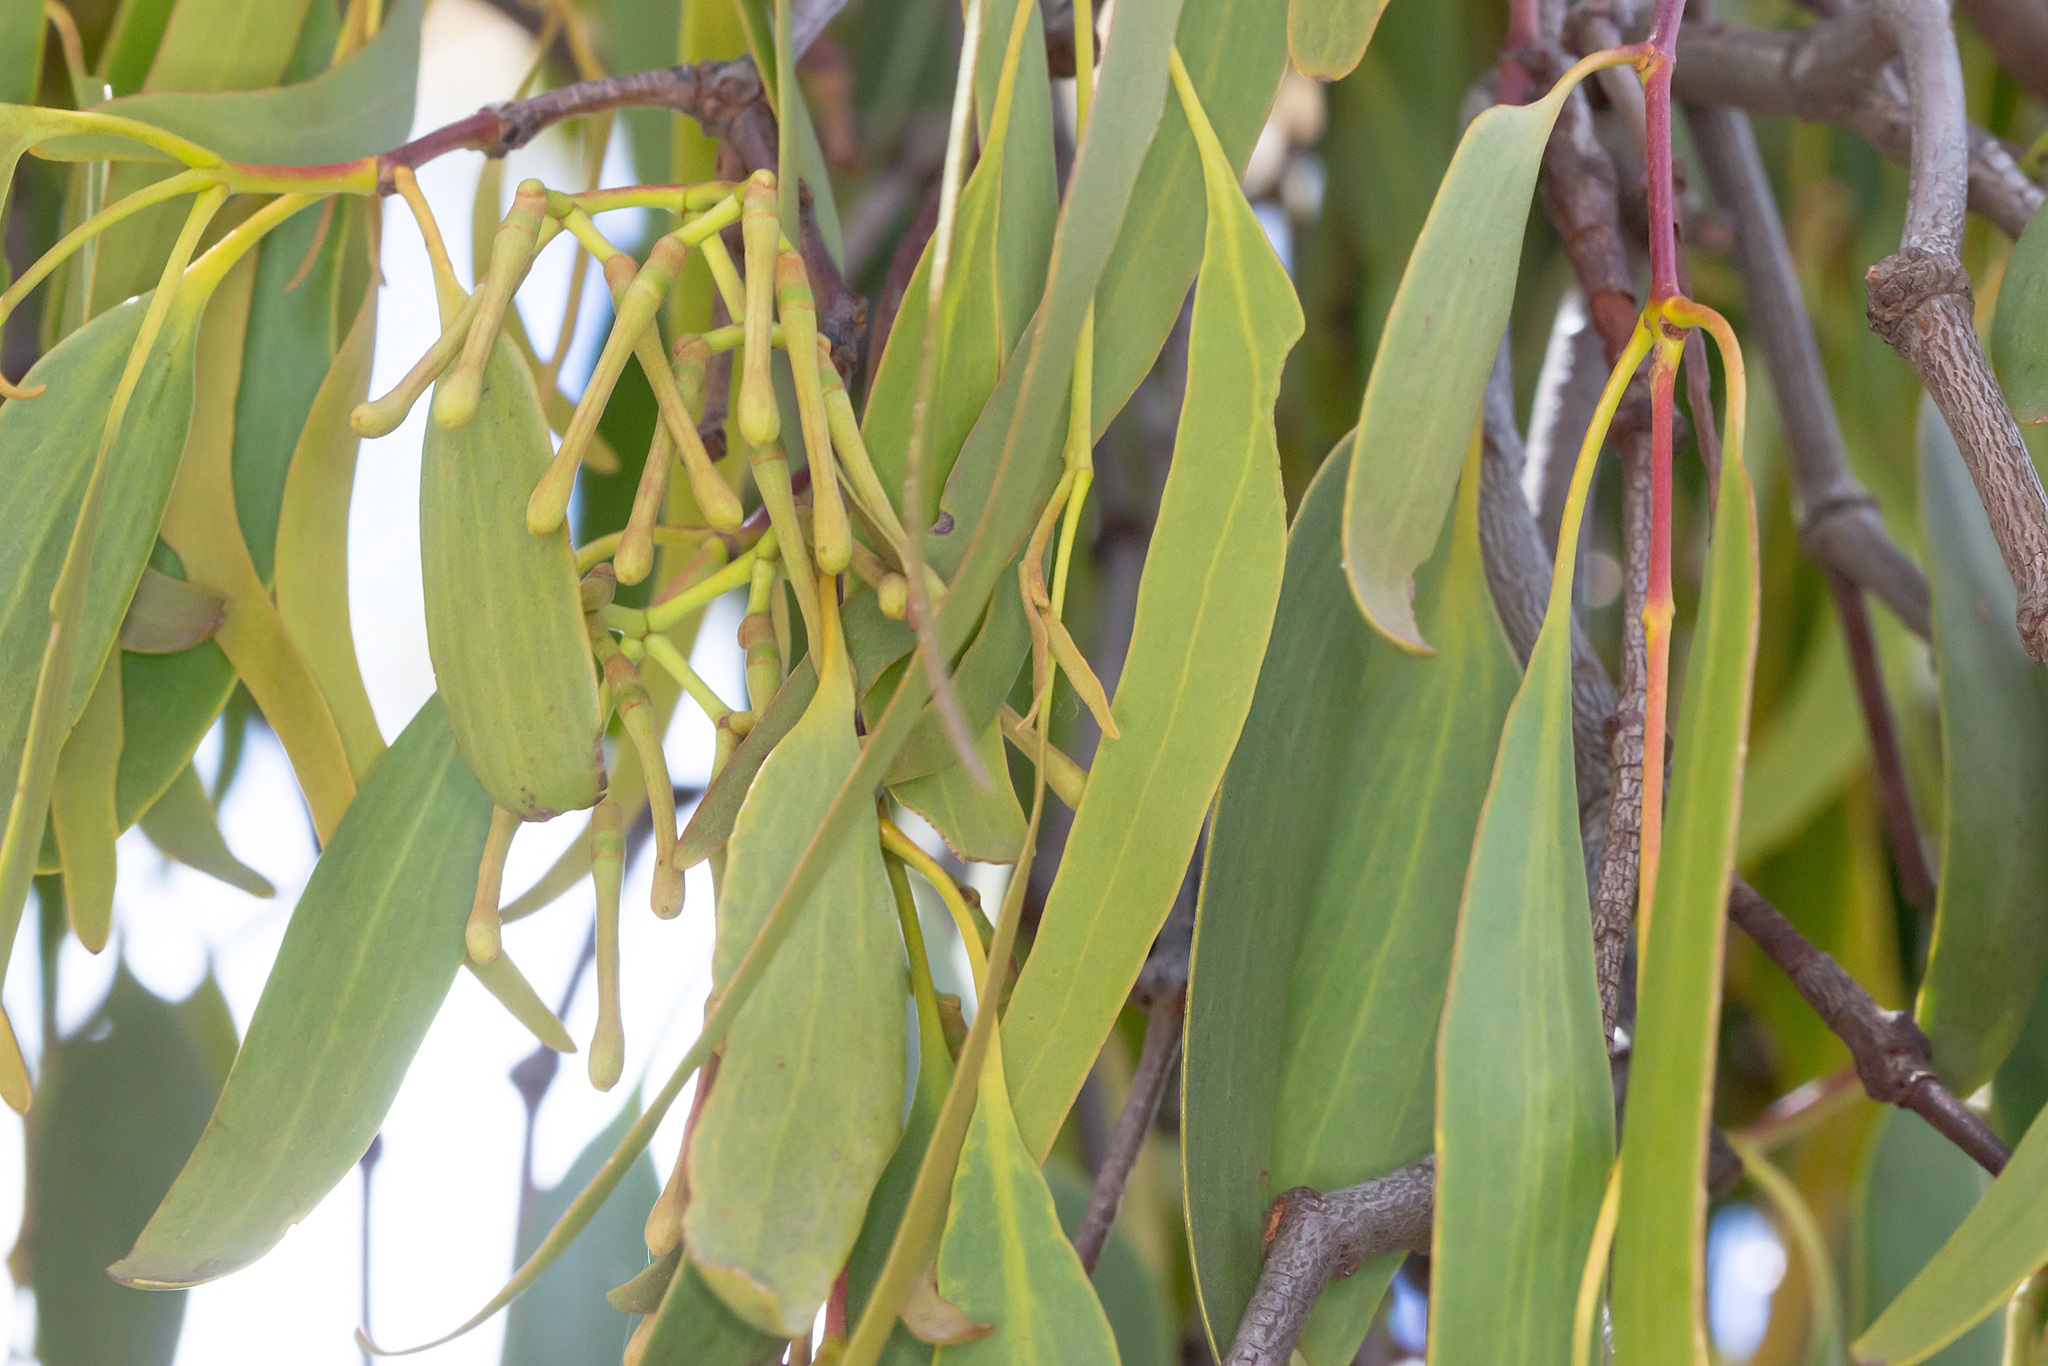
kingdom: Plantae
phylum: Tracheophyta
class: Magnoliopsida
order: Santalales
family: Loranthaceae
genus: Amyema
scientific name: Amyema miquelii
